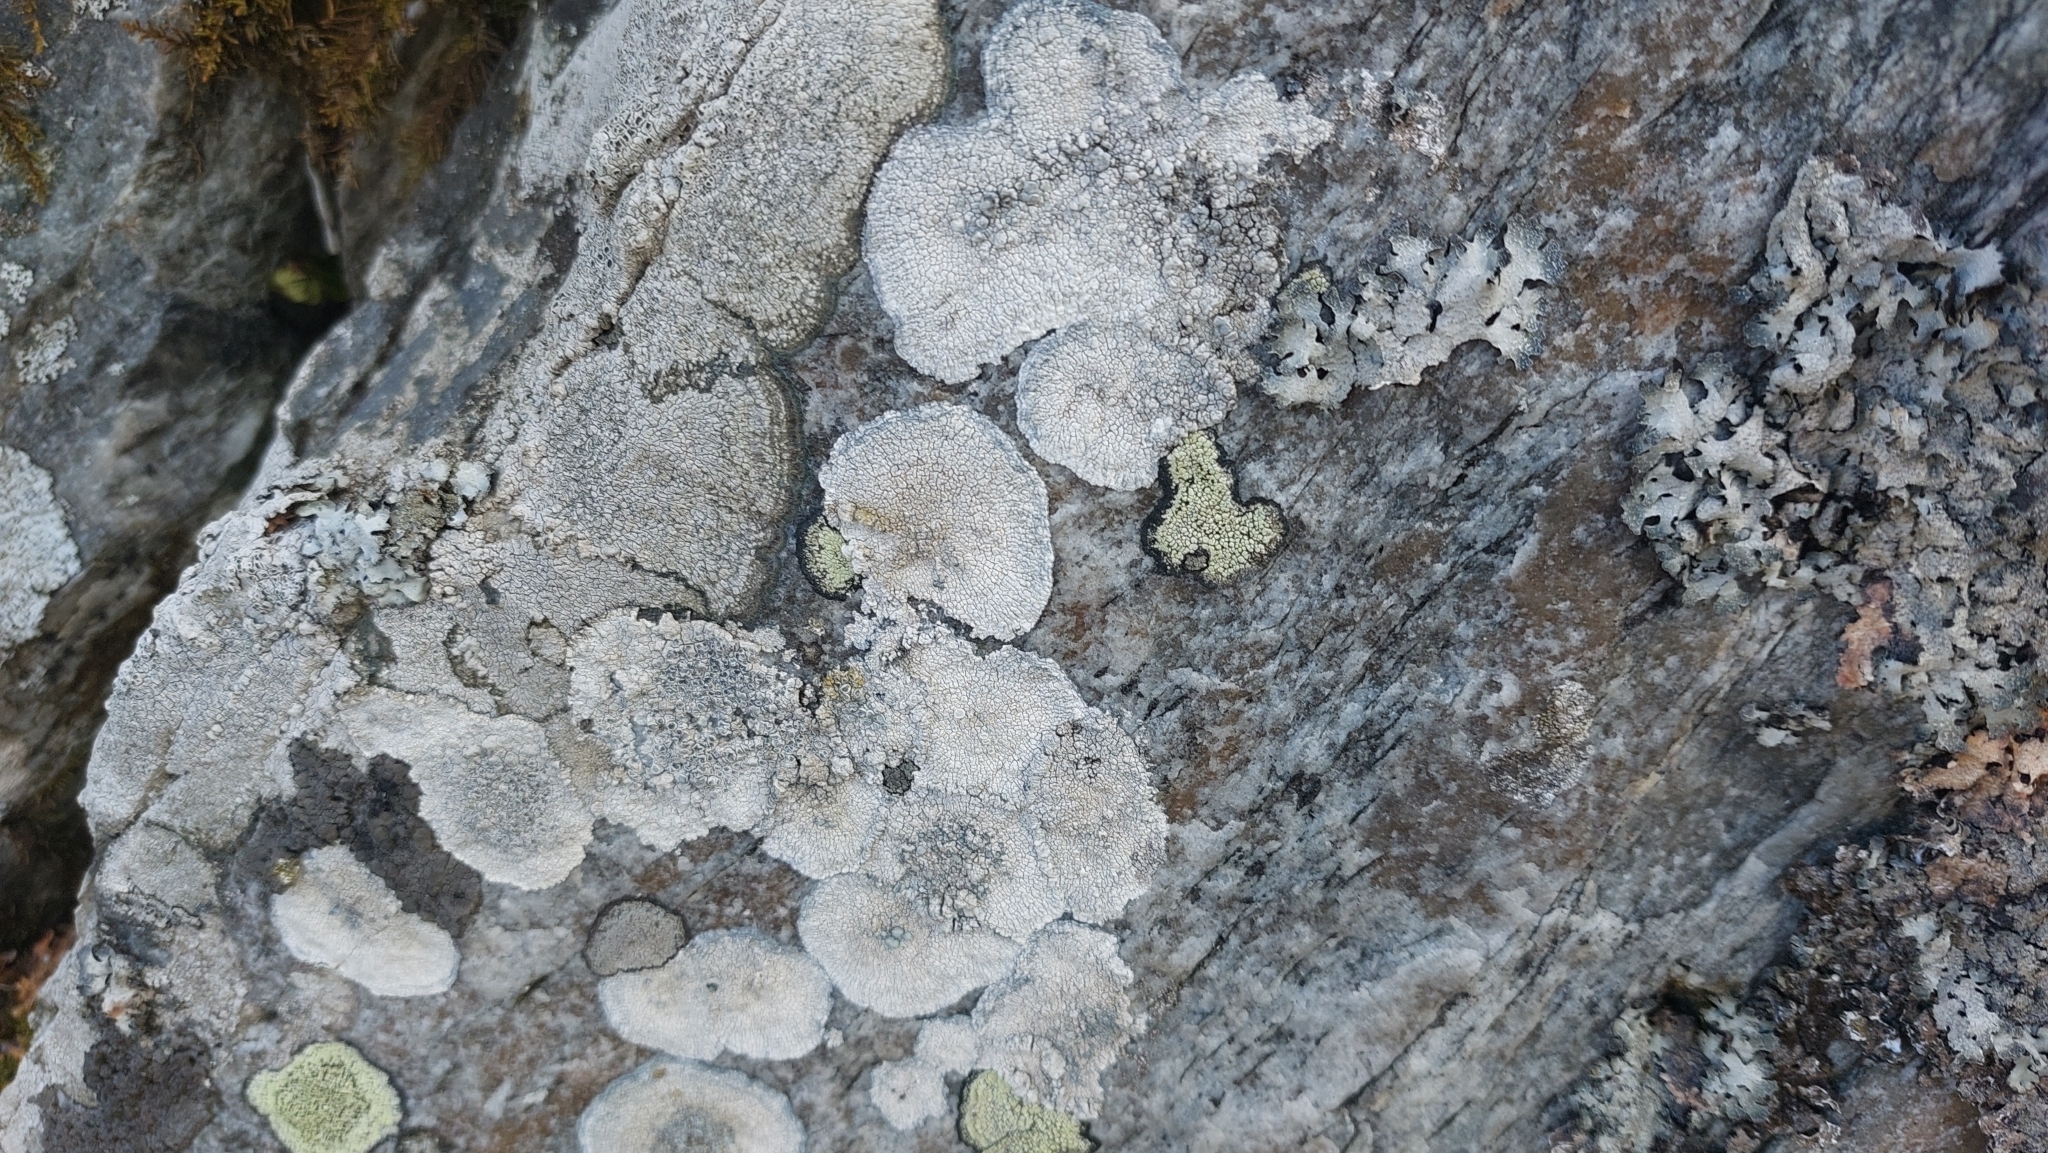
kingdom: Fungi
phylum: Ascomycota
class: Lecanoromycetes
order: Lecanorales
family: Parmeliaceae
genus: Parmelia
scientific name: Parmelia saxatilis
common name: Salted shield lichen
